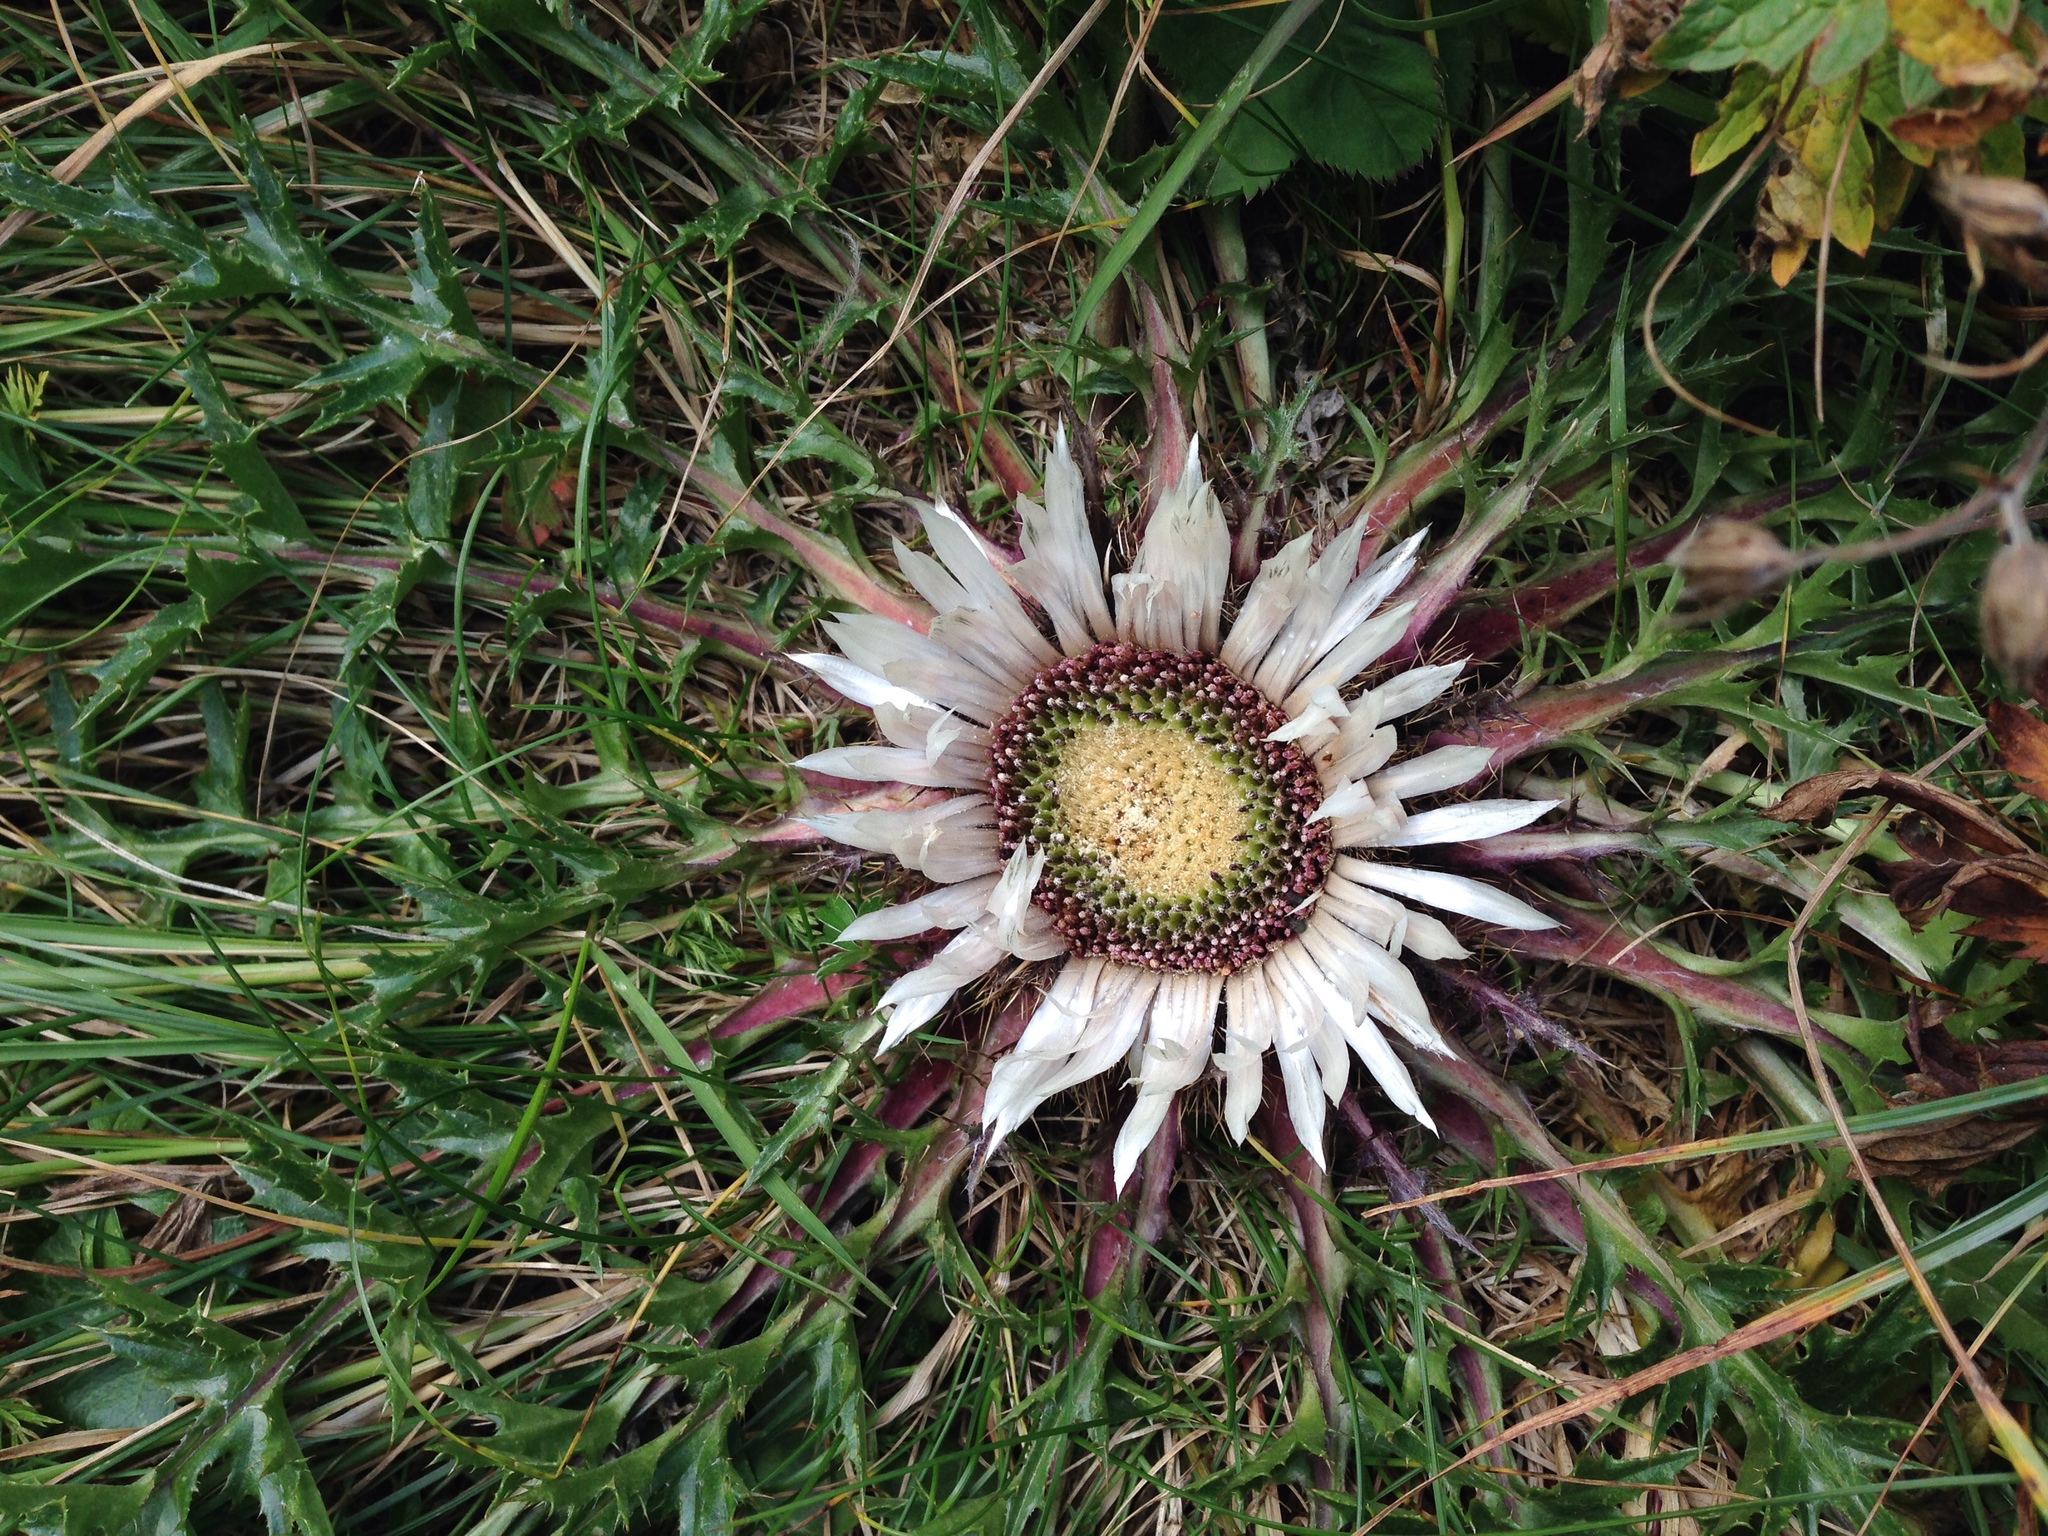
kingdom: Plantae
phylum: Tracheophyta
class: Magnoliopsida
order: Asterales
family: Asteraceae
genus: Carlina
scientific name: Carlina acaulis
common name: Stemless carline thistle
